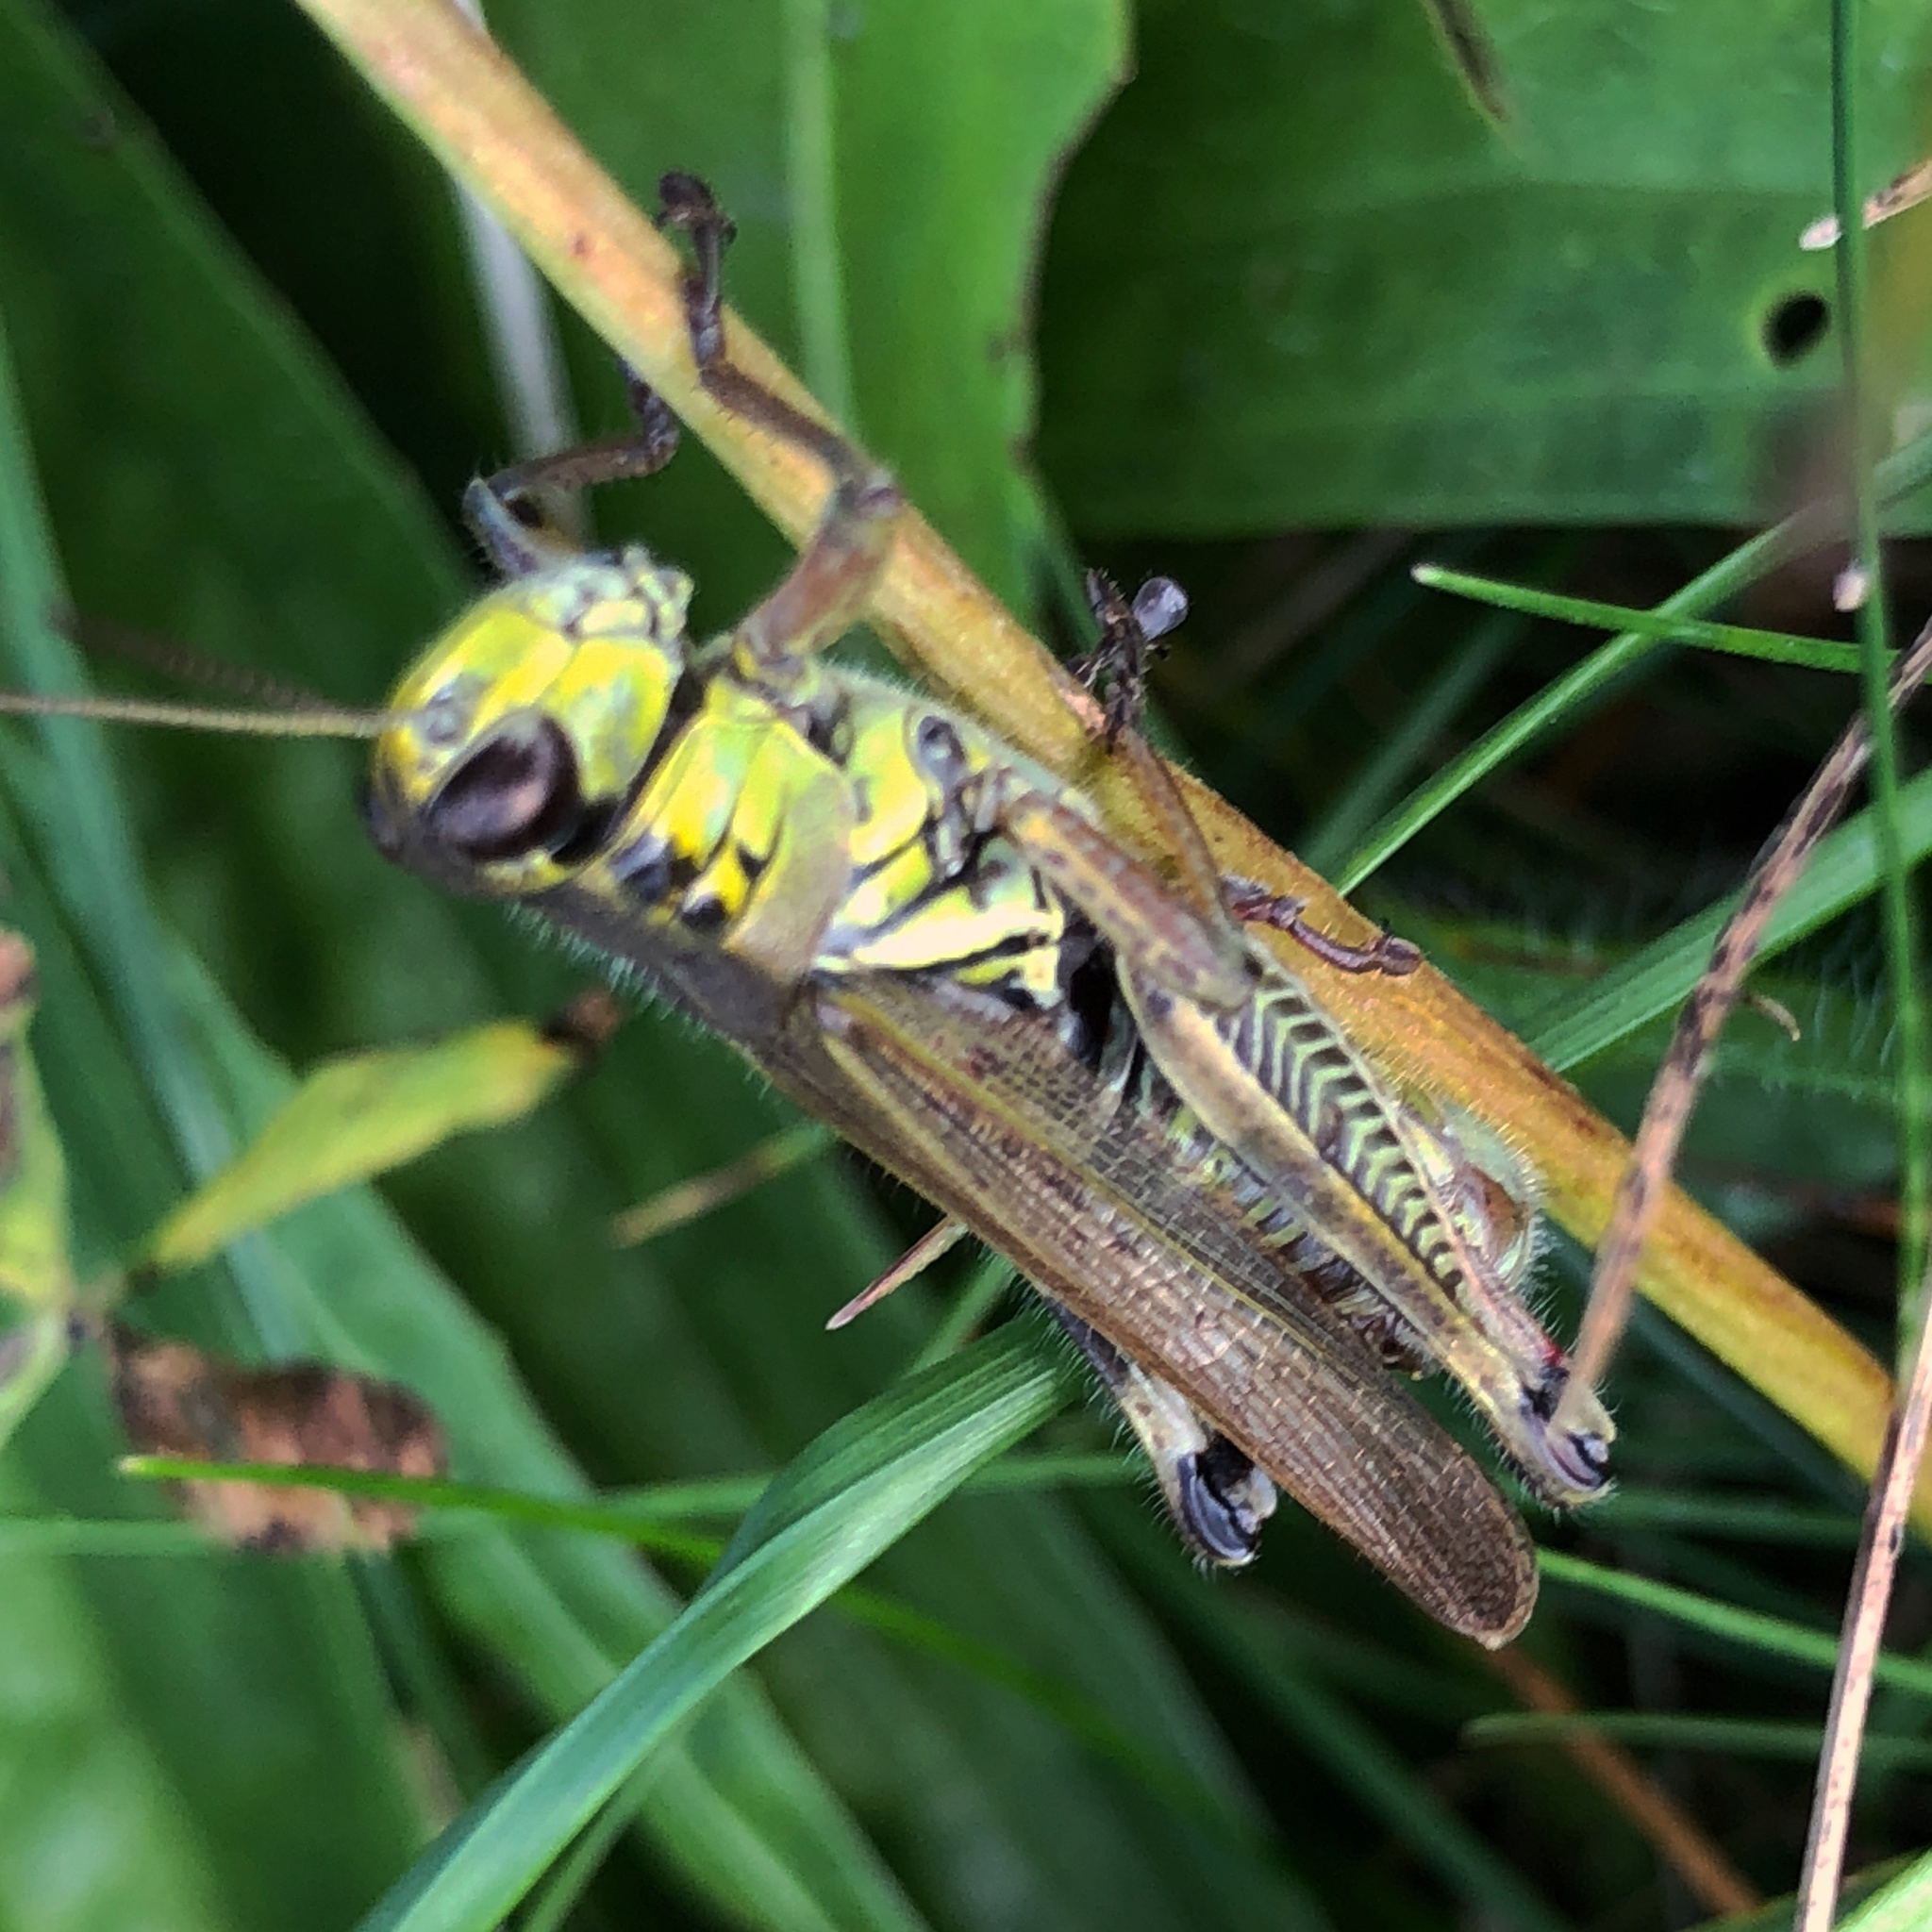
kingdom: Animalia
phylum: Arthropoda
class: Insecta
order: Orthoptera
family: Acrididae
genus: Melanoplus
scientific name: Melanoplus femurrubrum
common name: Red-legged grasshopper
